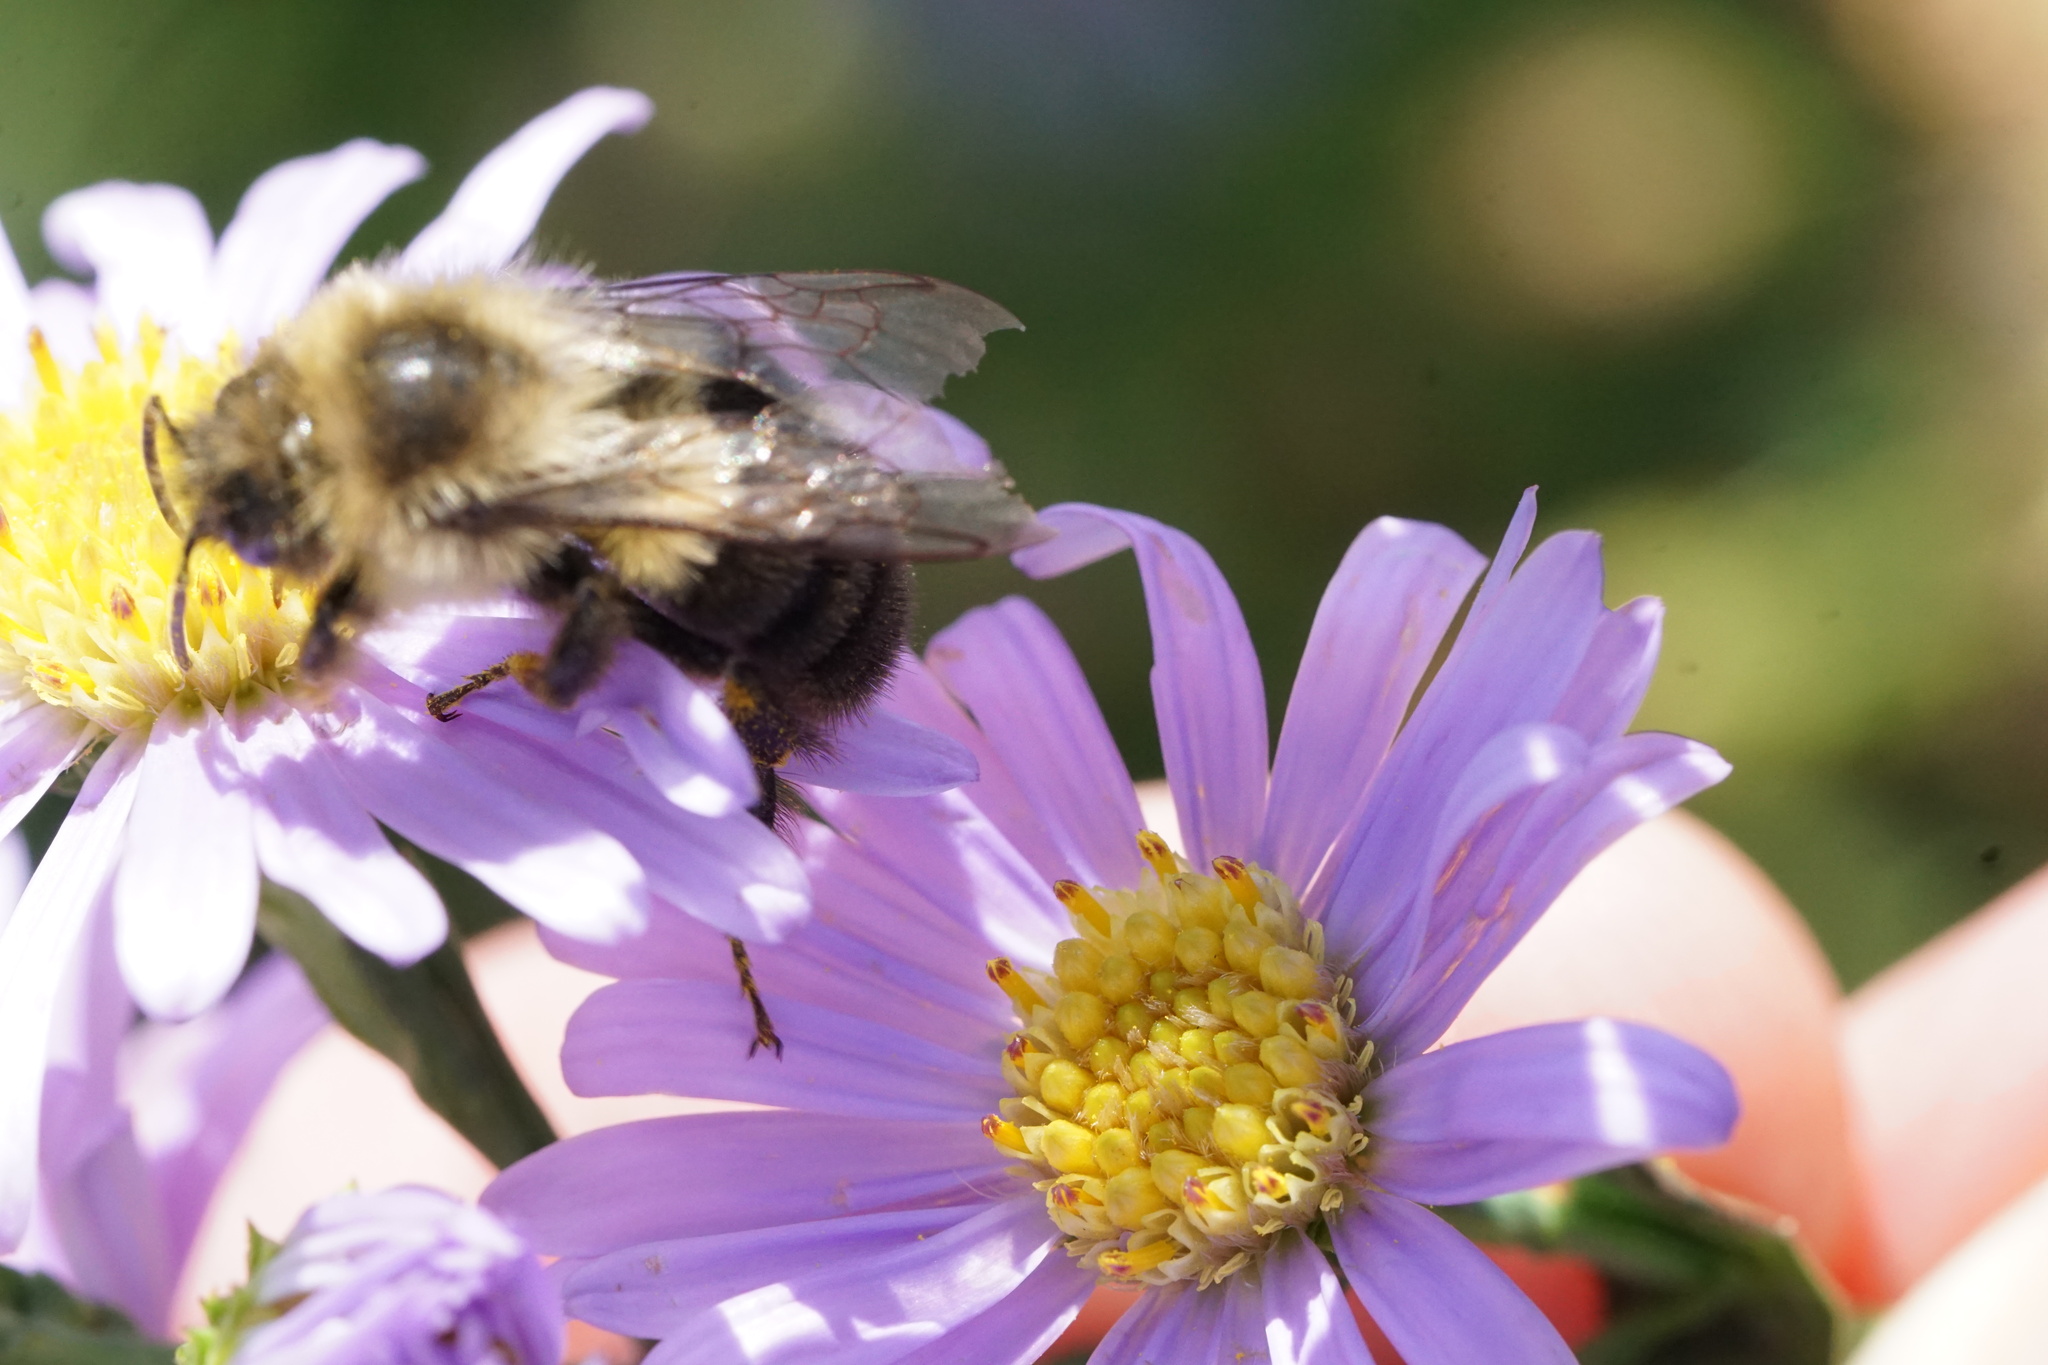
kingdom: Animalia
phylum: Arthropoda
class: Insecta
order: Hymenoptera
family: Apidae
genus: Bombus
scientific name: Bombus impatiens
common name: Common eastern bumble bee
